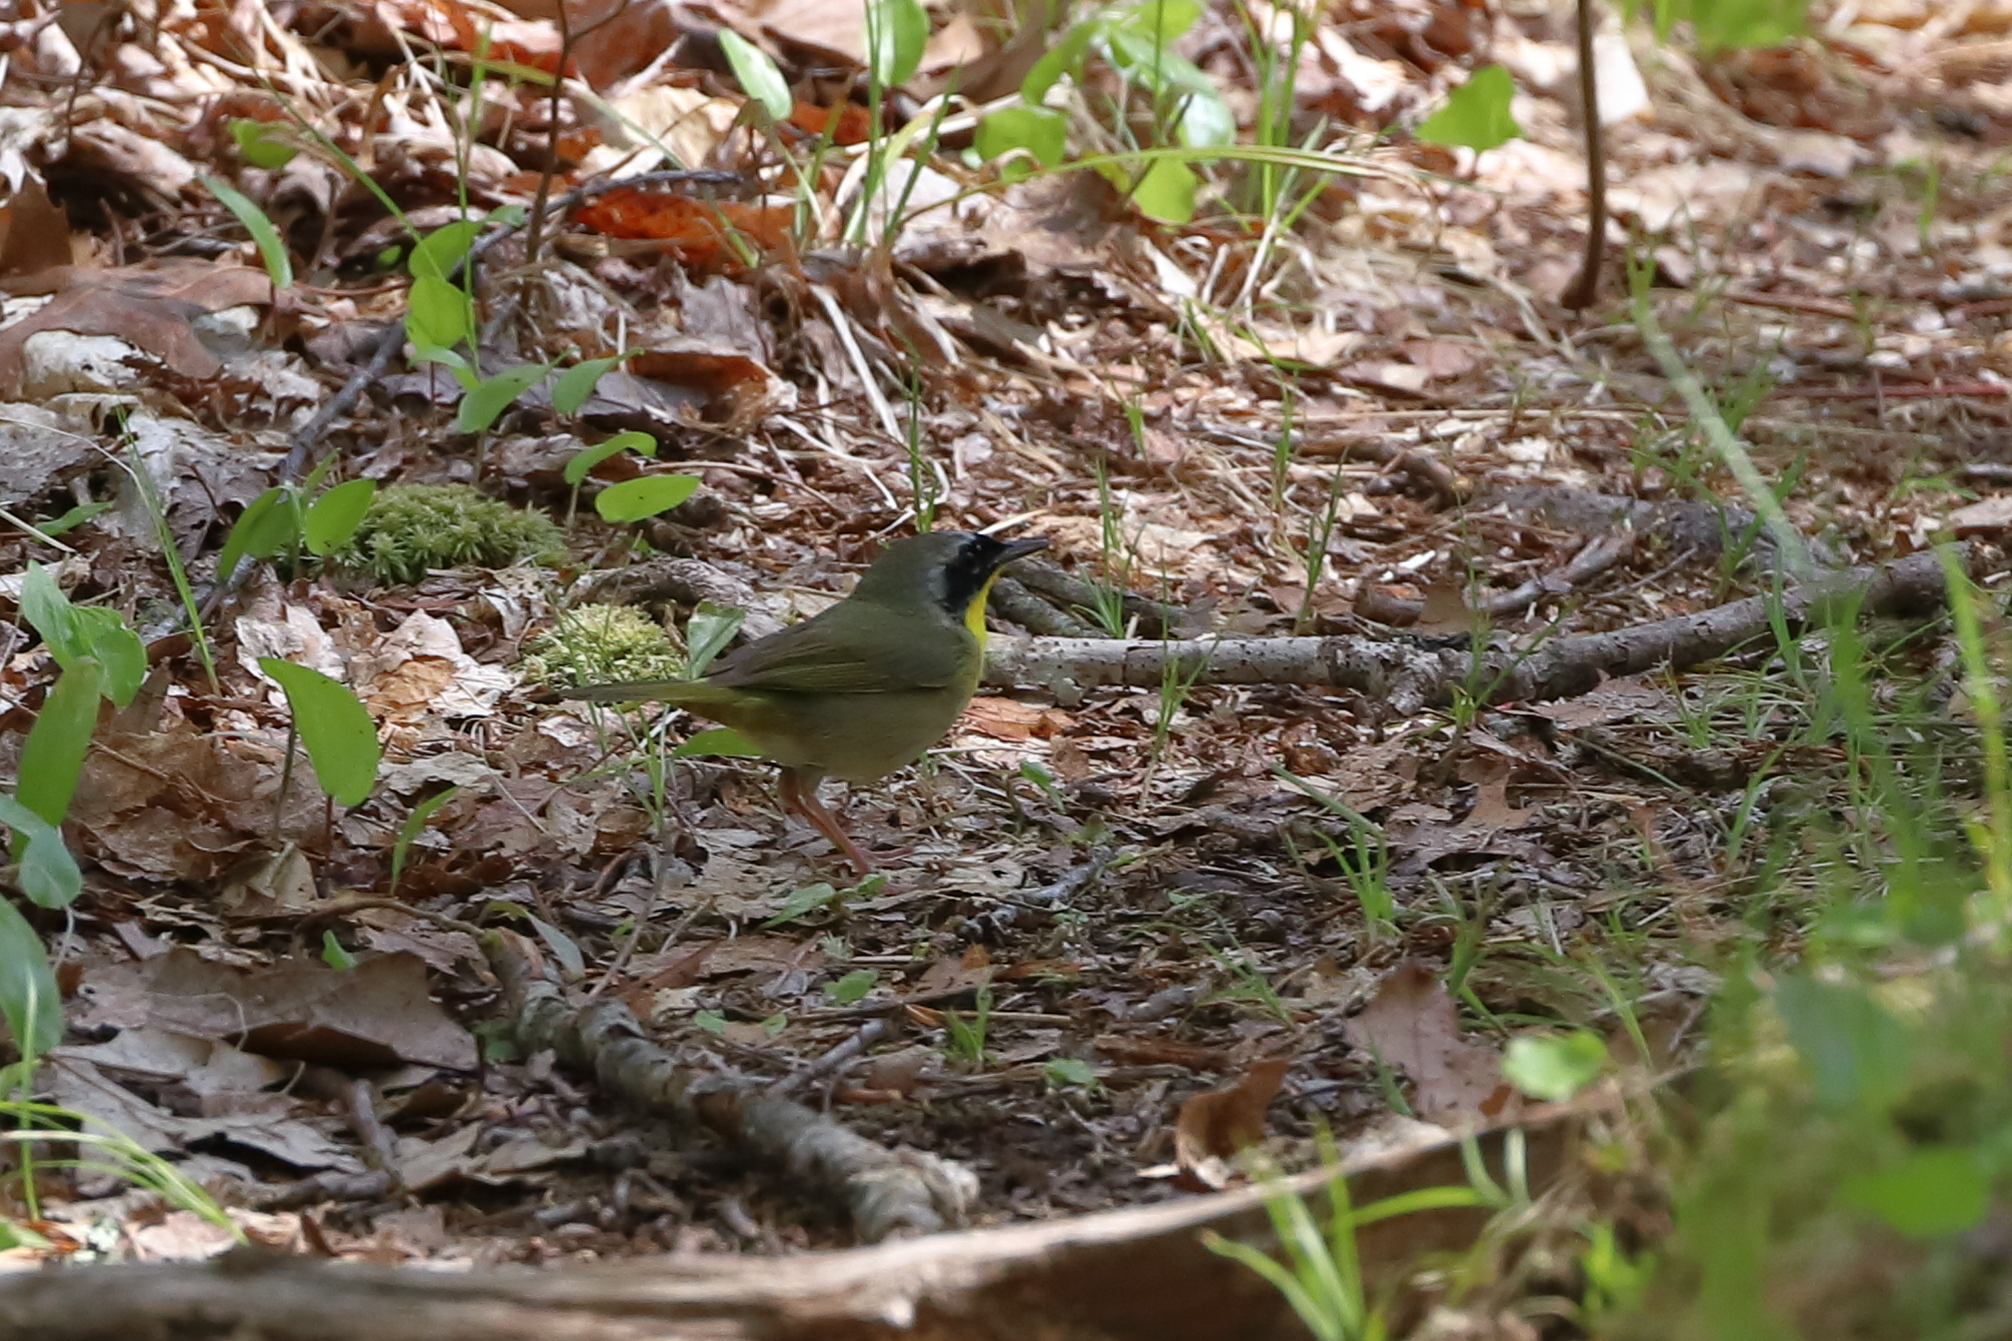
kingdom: Animalia
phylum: Chordata
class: Aves
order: Passeriformes
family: Parulidae
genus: Geothlypis
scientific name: Geothlypis trichas
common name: Common yellowthroat
